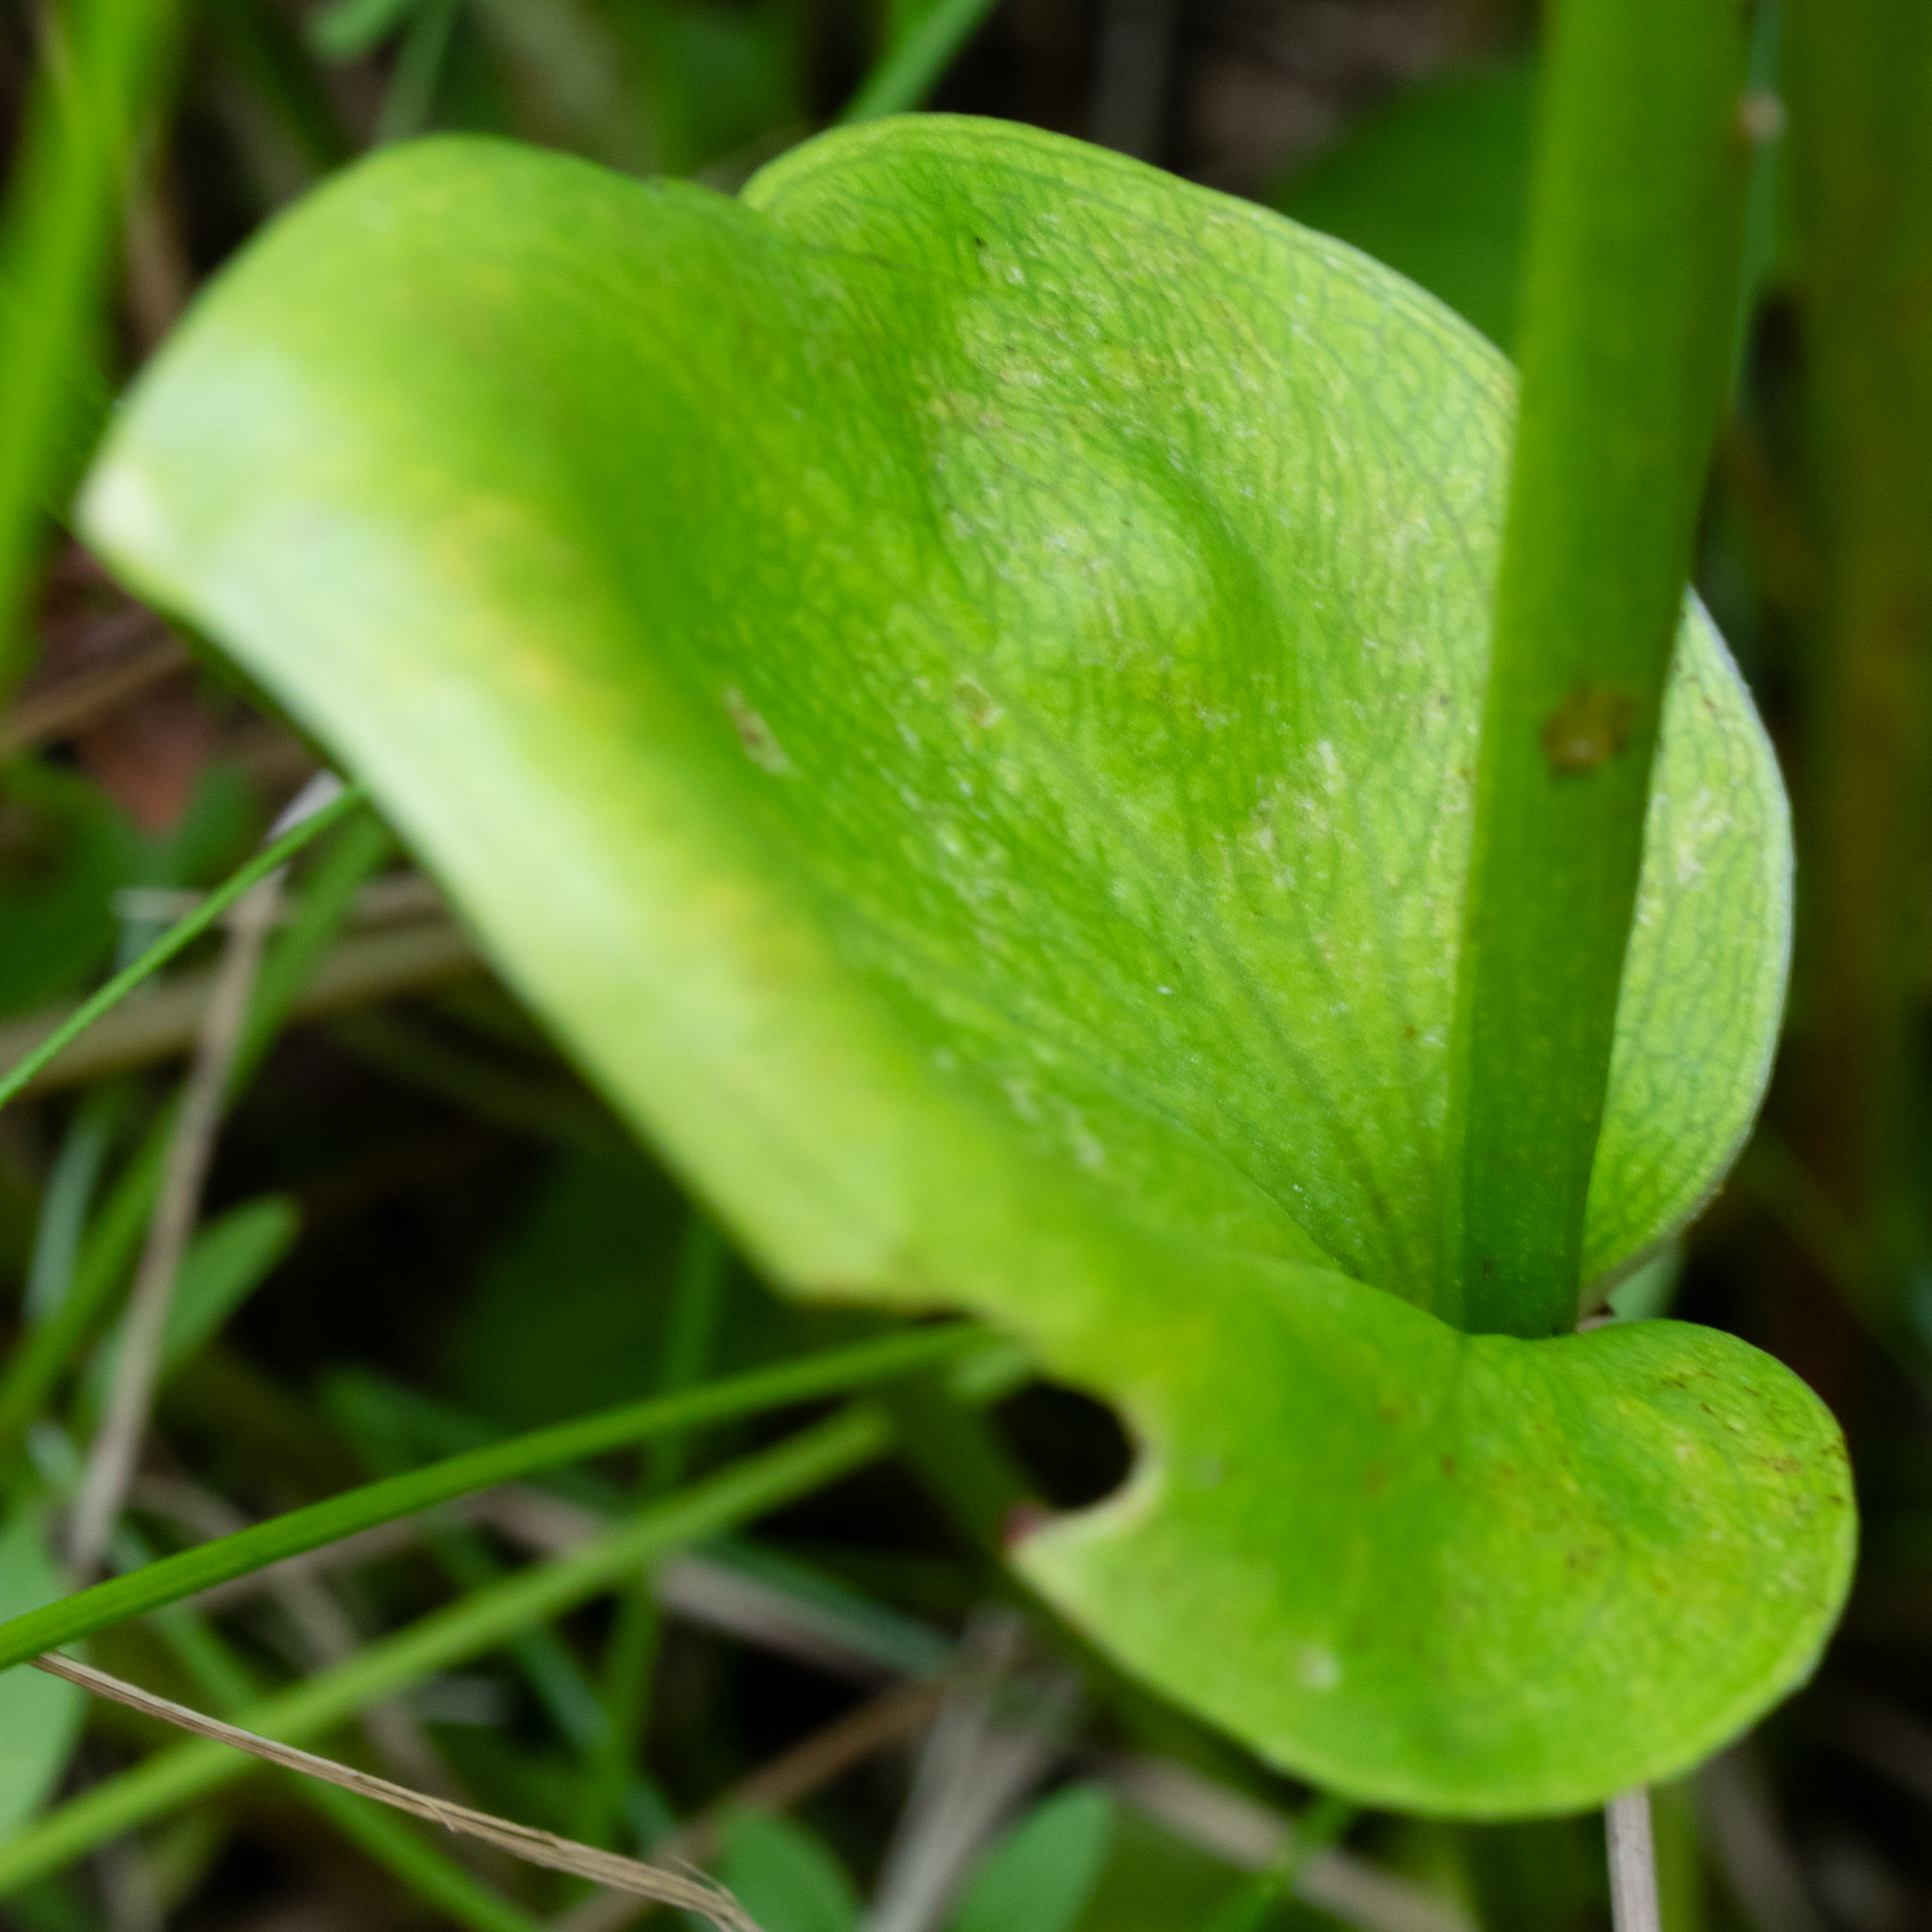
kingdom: Plantae
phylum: Tracheophyta
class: Magnoliopsida
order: Celastrales
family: Parnassiaceae
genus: Parnassia
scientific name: Parnassia glauca
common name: American grass-of-parnassus
